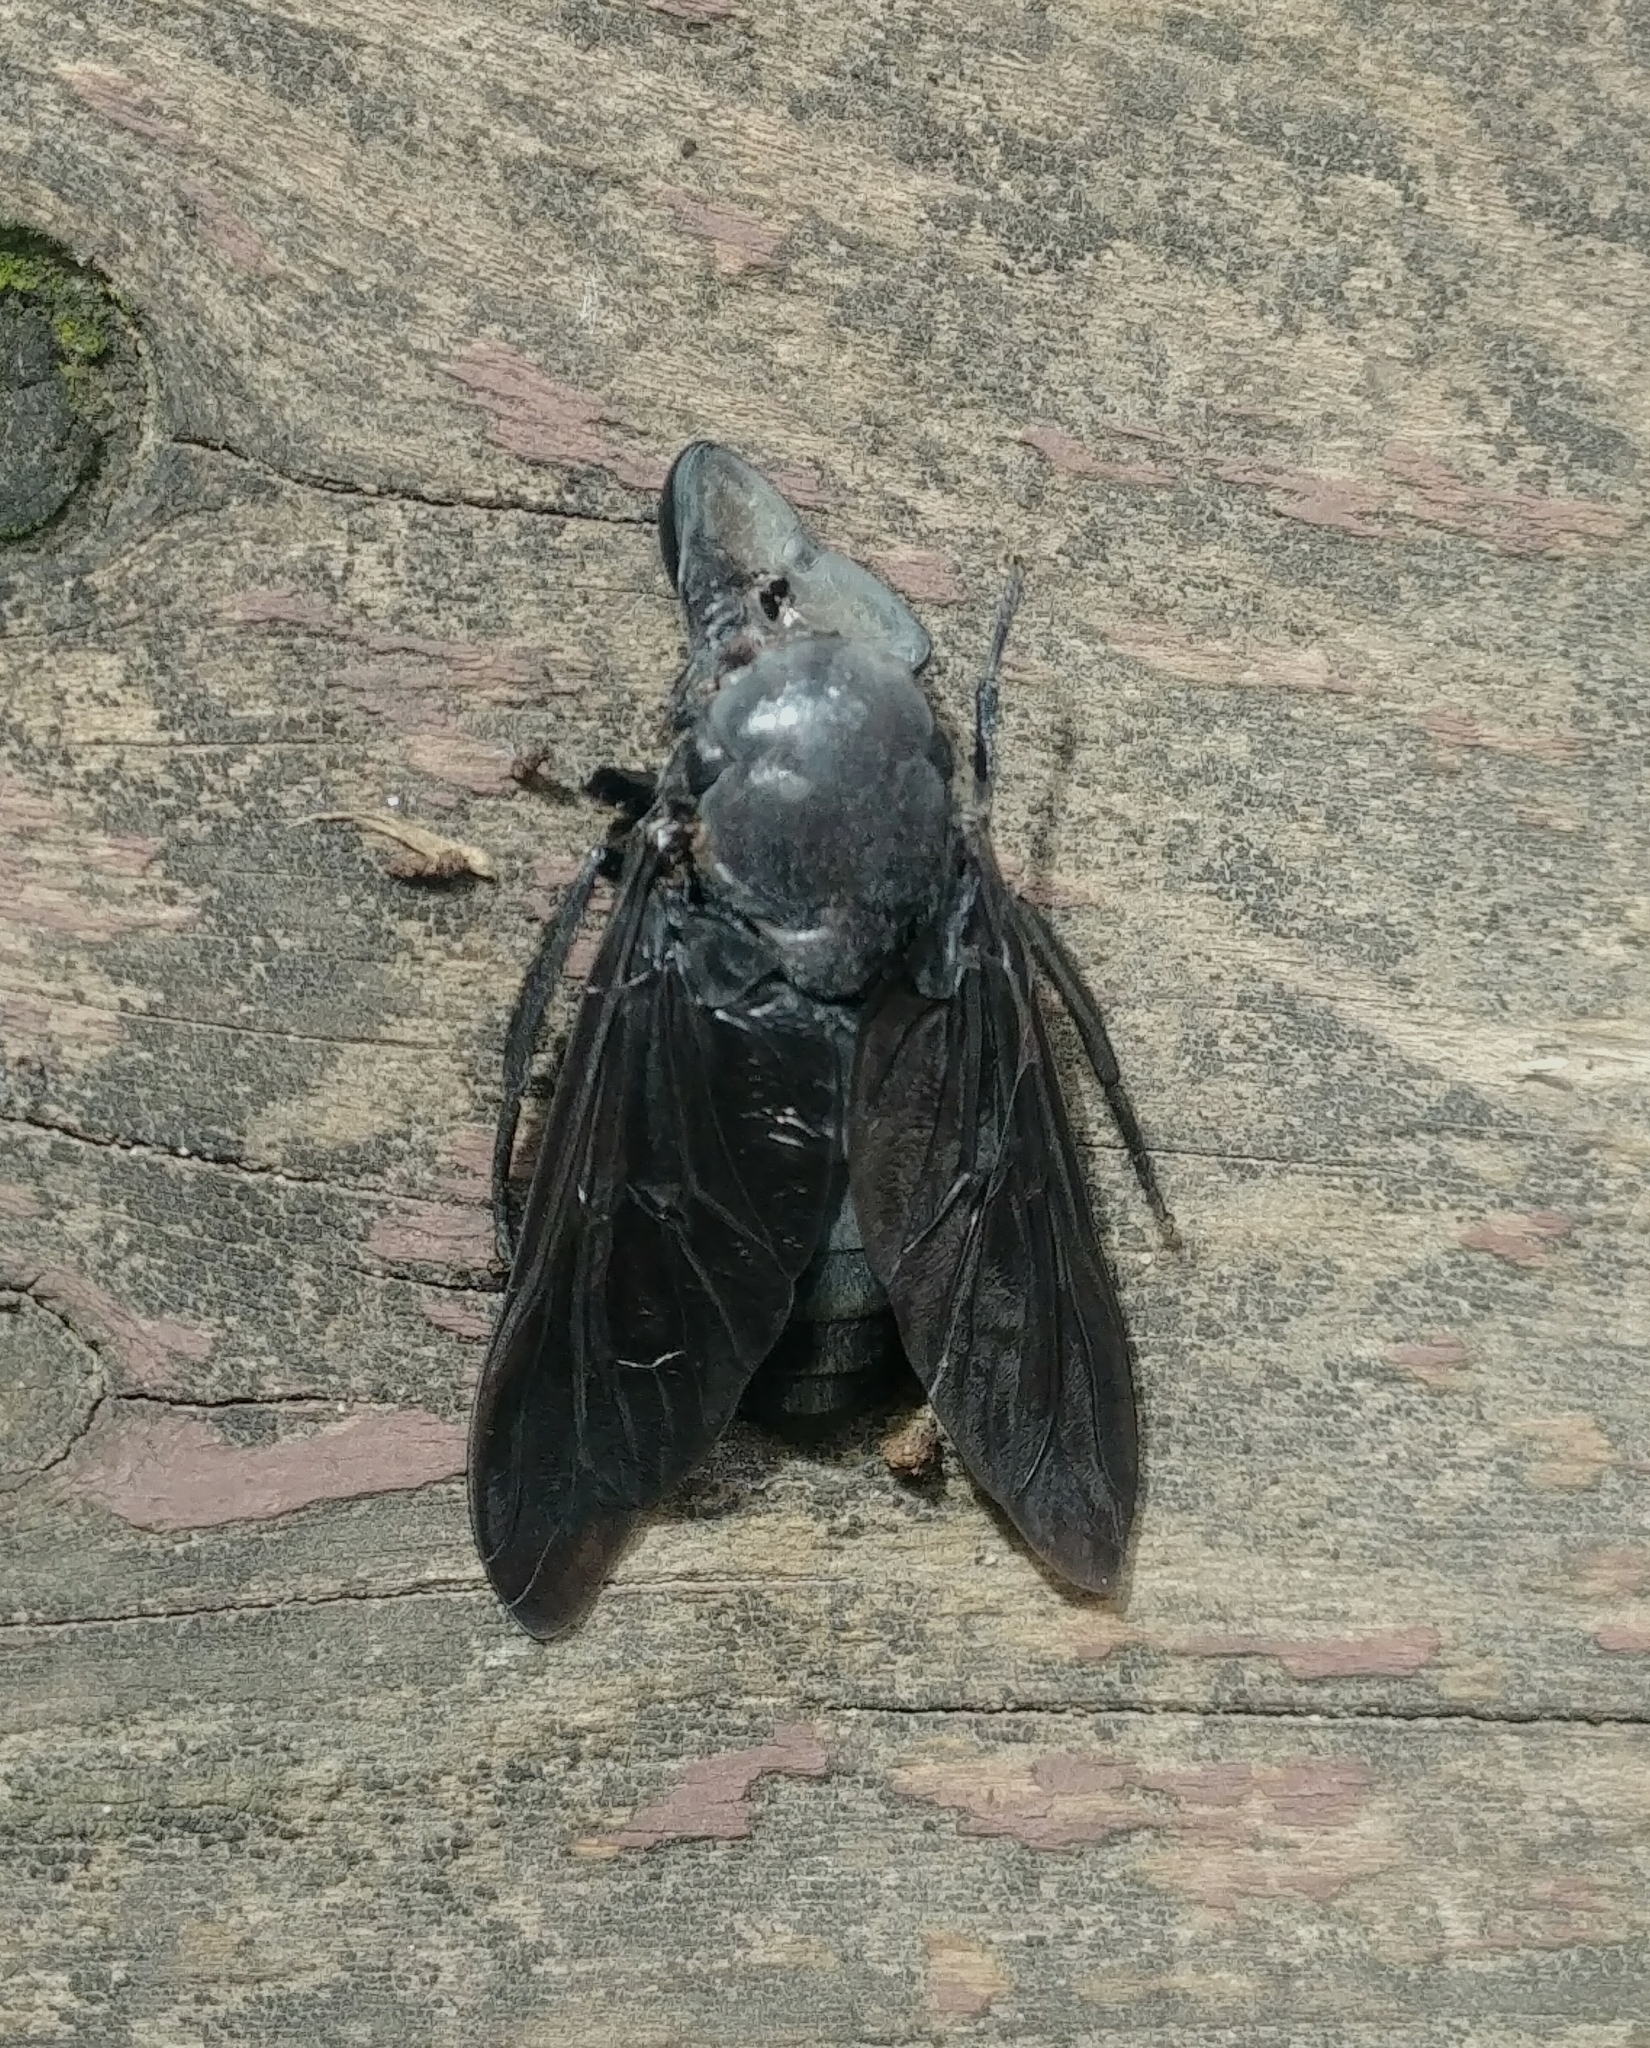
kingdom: Animalia
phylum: Arthropoda
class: Insecta
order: Diptera
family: Tabanidae
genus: Tabanus
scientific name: Tabanus atratus
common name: Black horse fly
